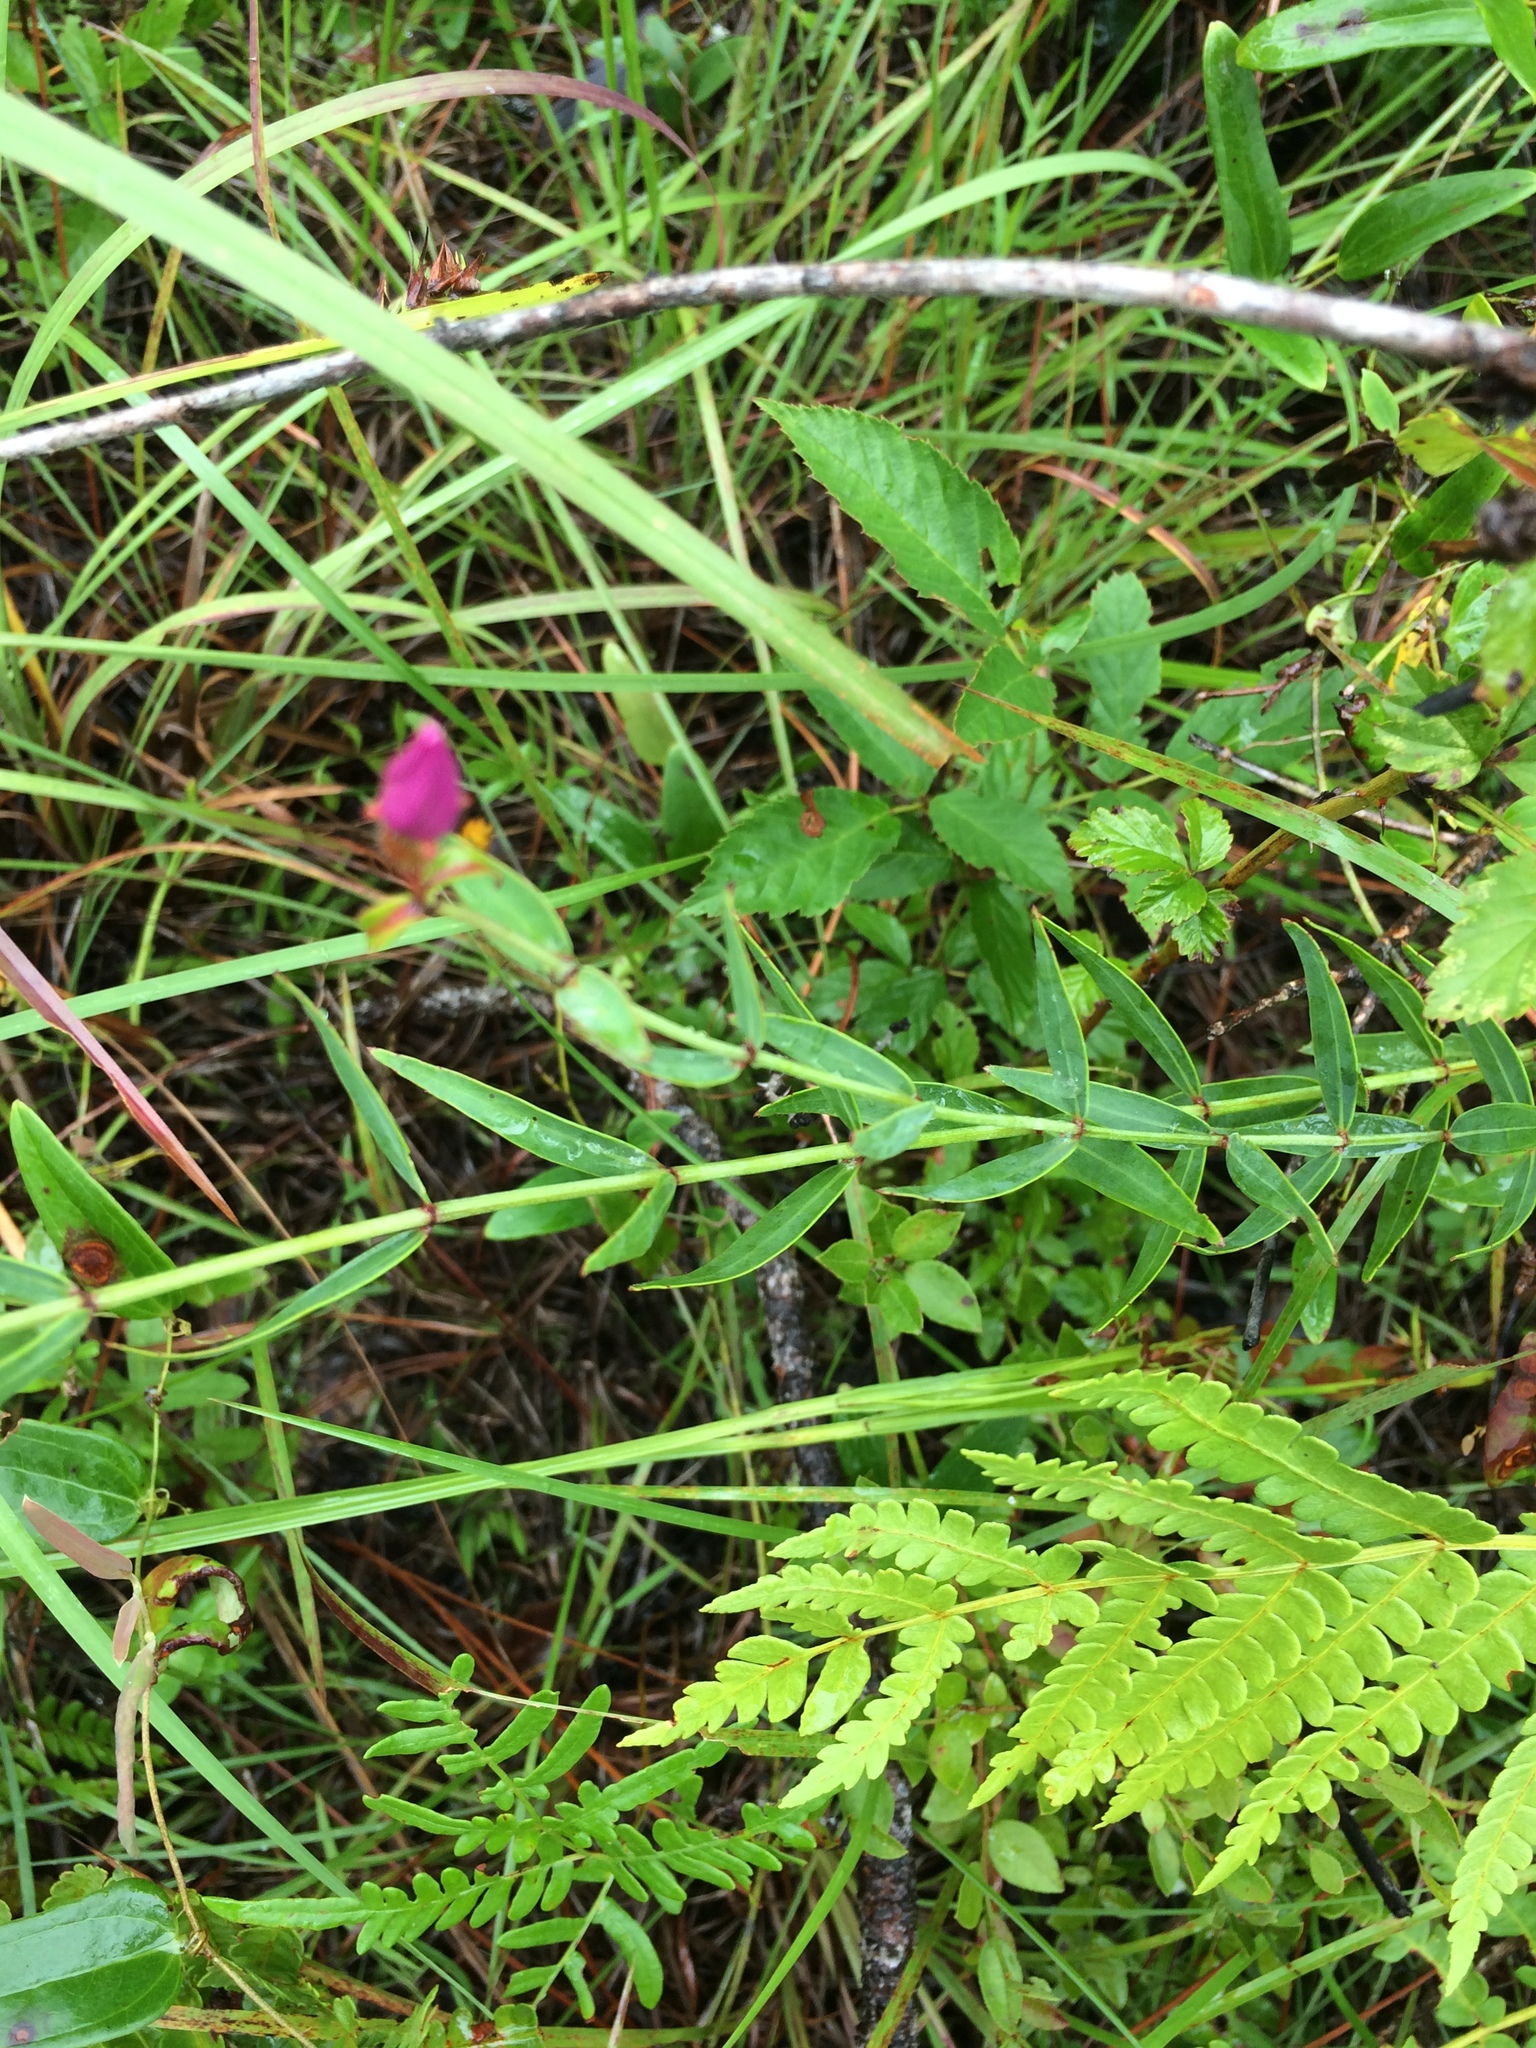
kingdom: Plantae
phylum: Tracheophyta
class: Magnoliopsida
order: Myrtales
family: Melastomataceae
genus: Rhexia
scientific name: Rhexia alifanus
